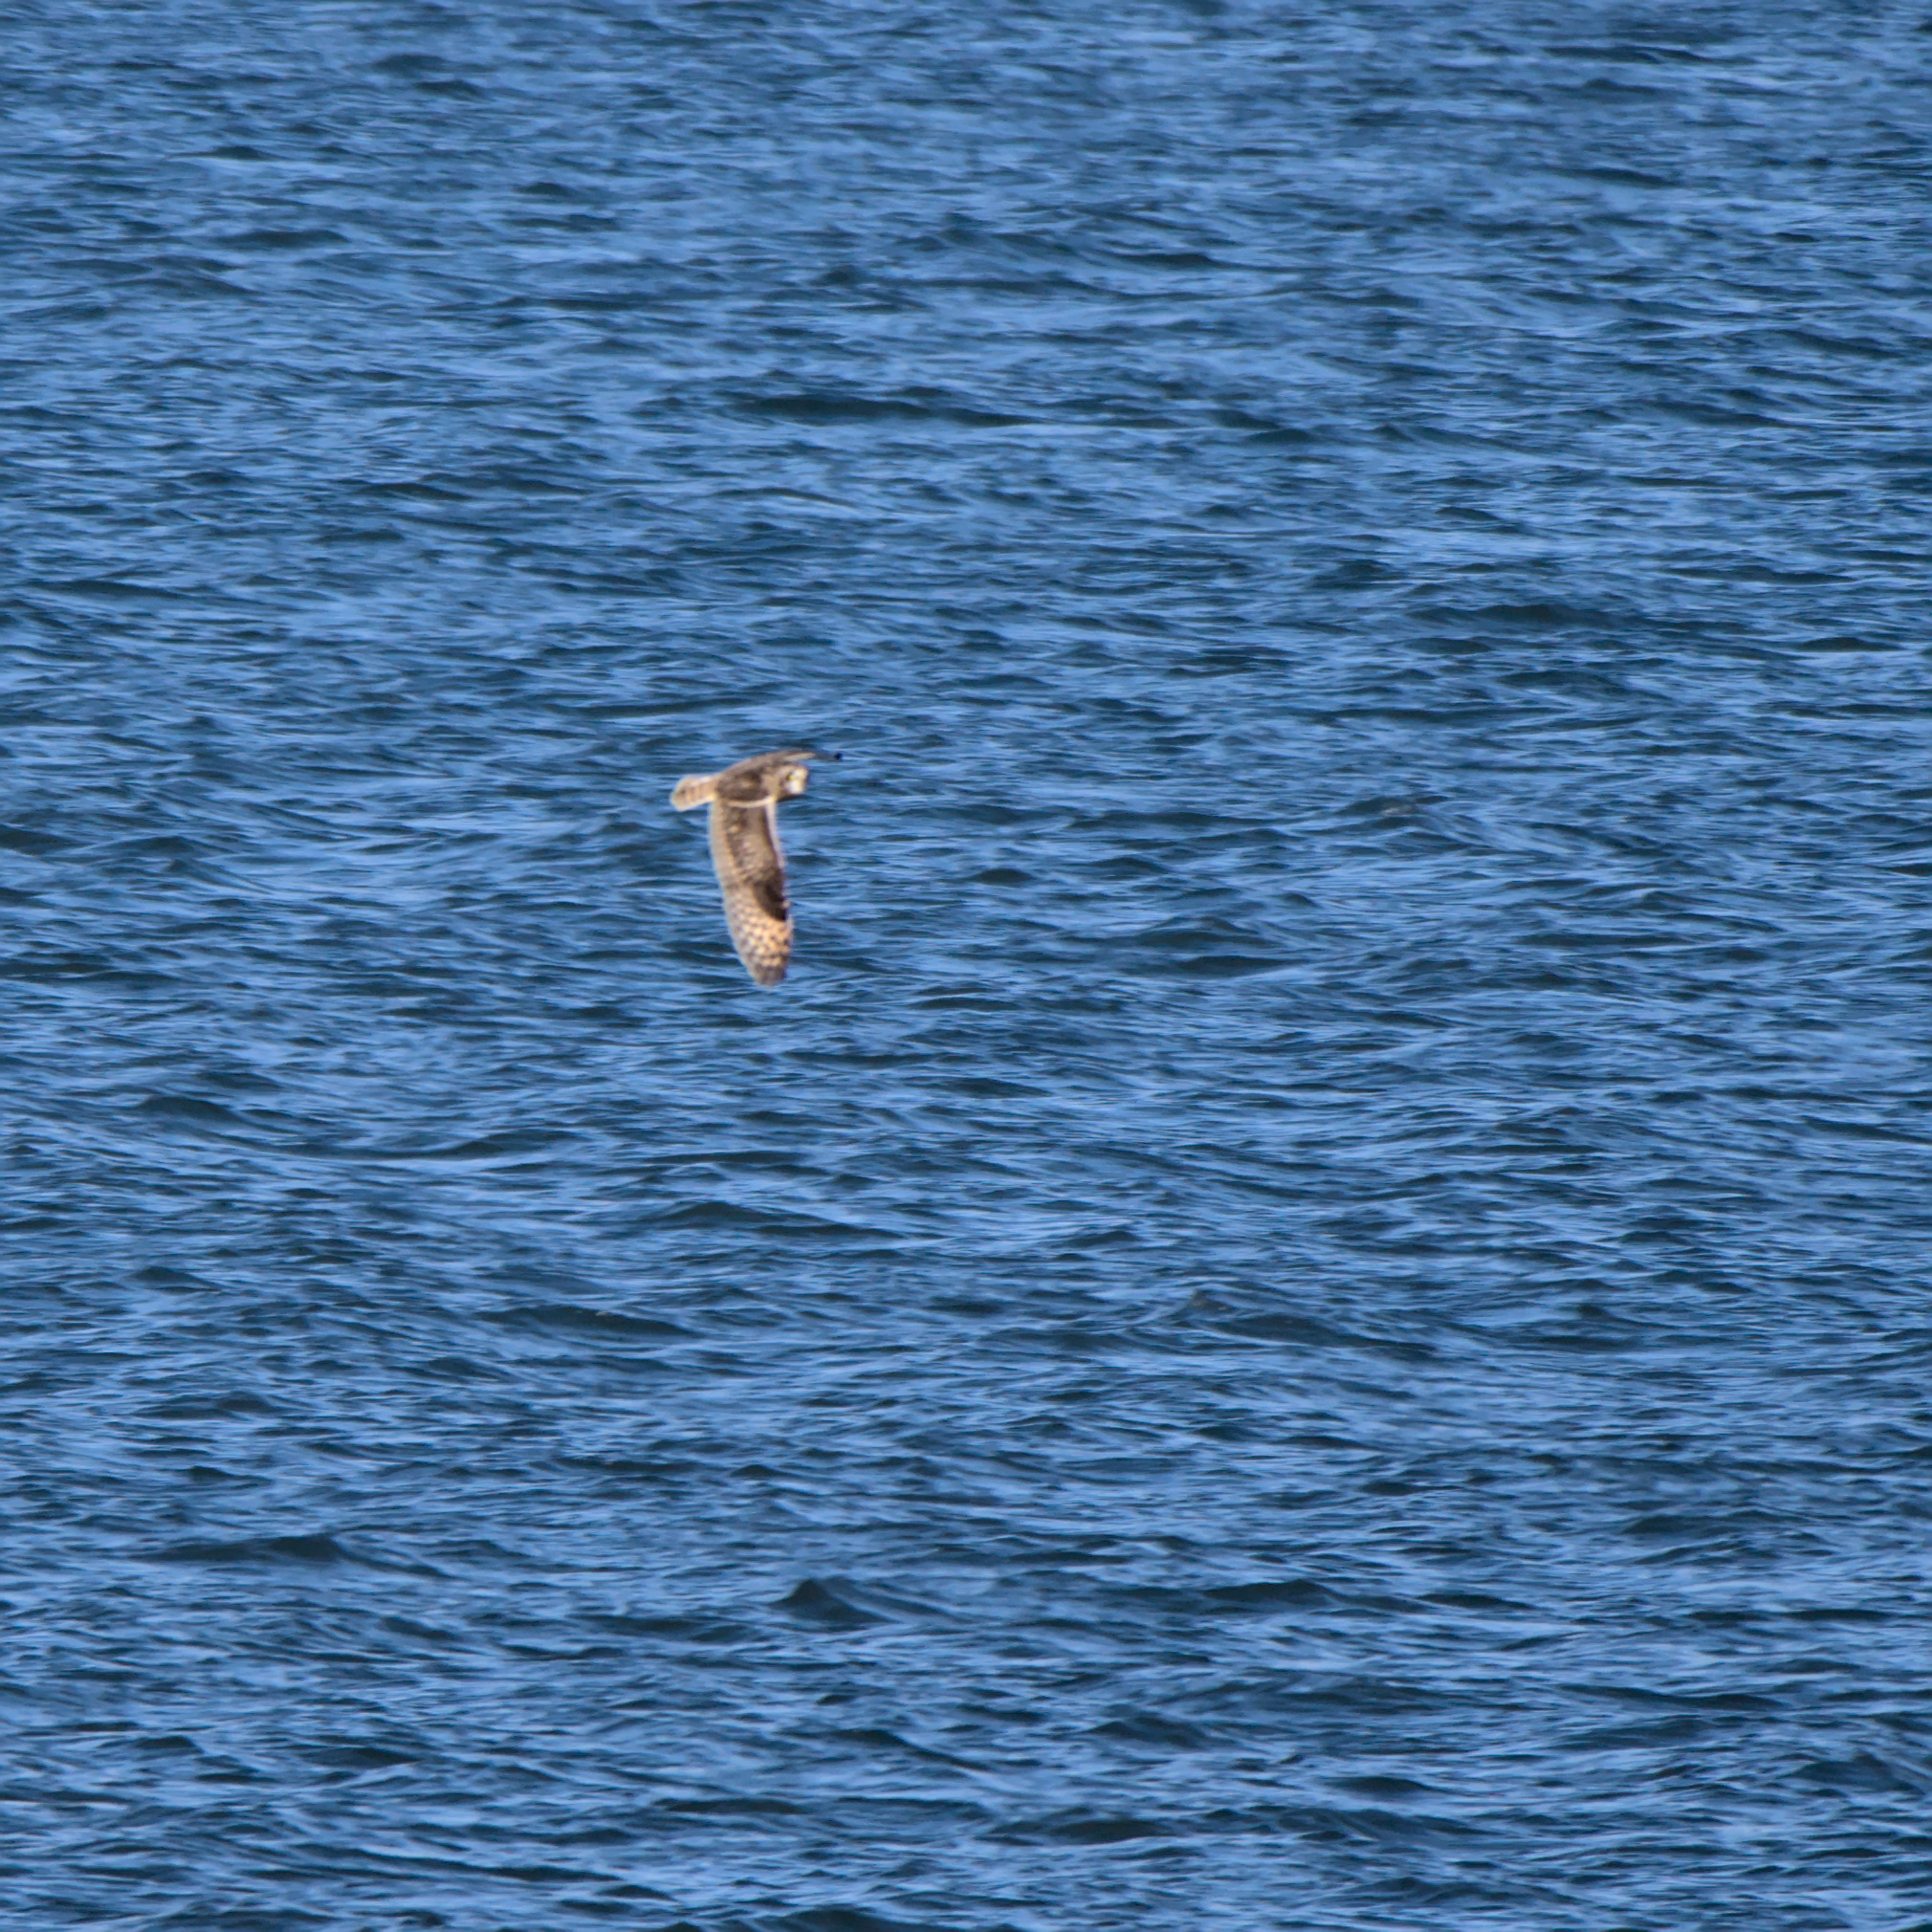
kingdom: Animalia
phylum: Chordata
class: Aves
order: Strigiformes
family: Strigidae
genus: Asio
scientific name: Asio flammeus
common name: Short-eared owl
